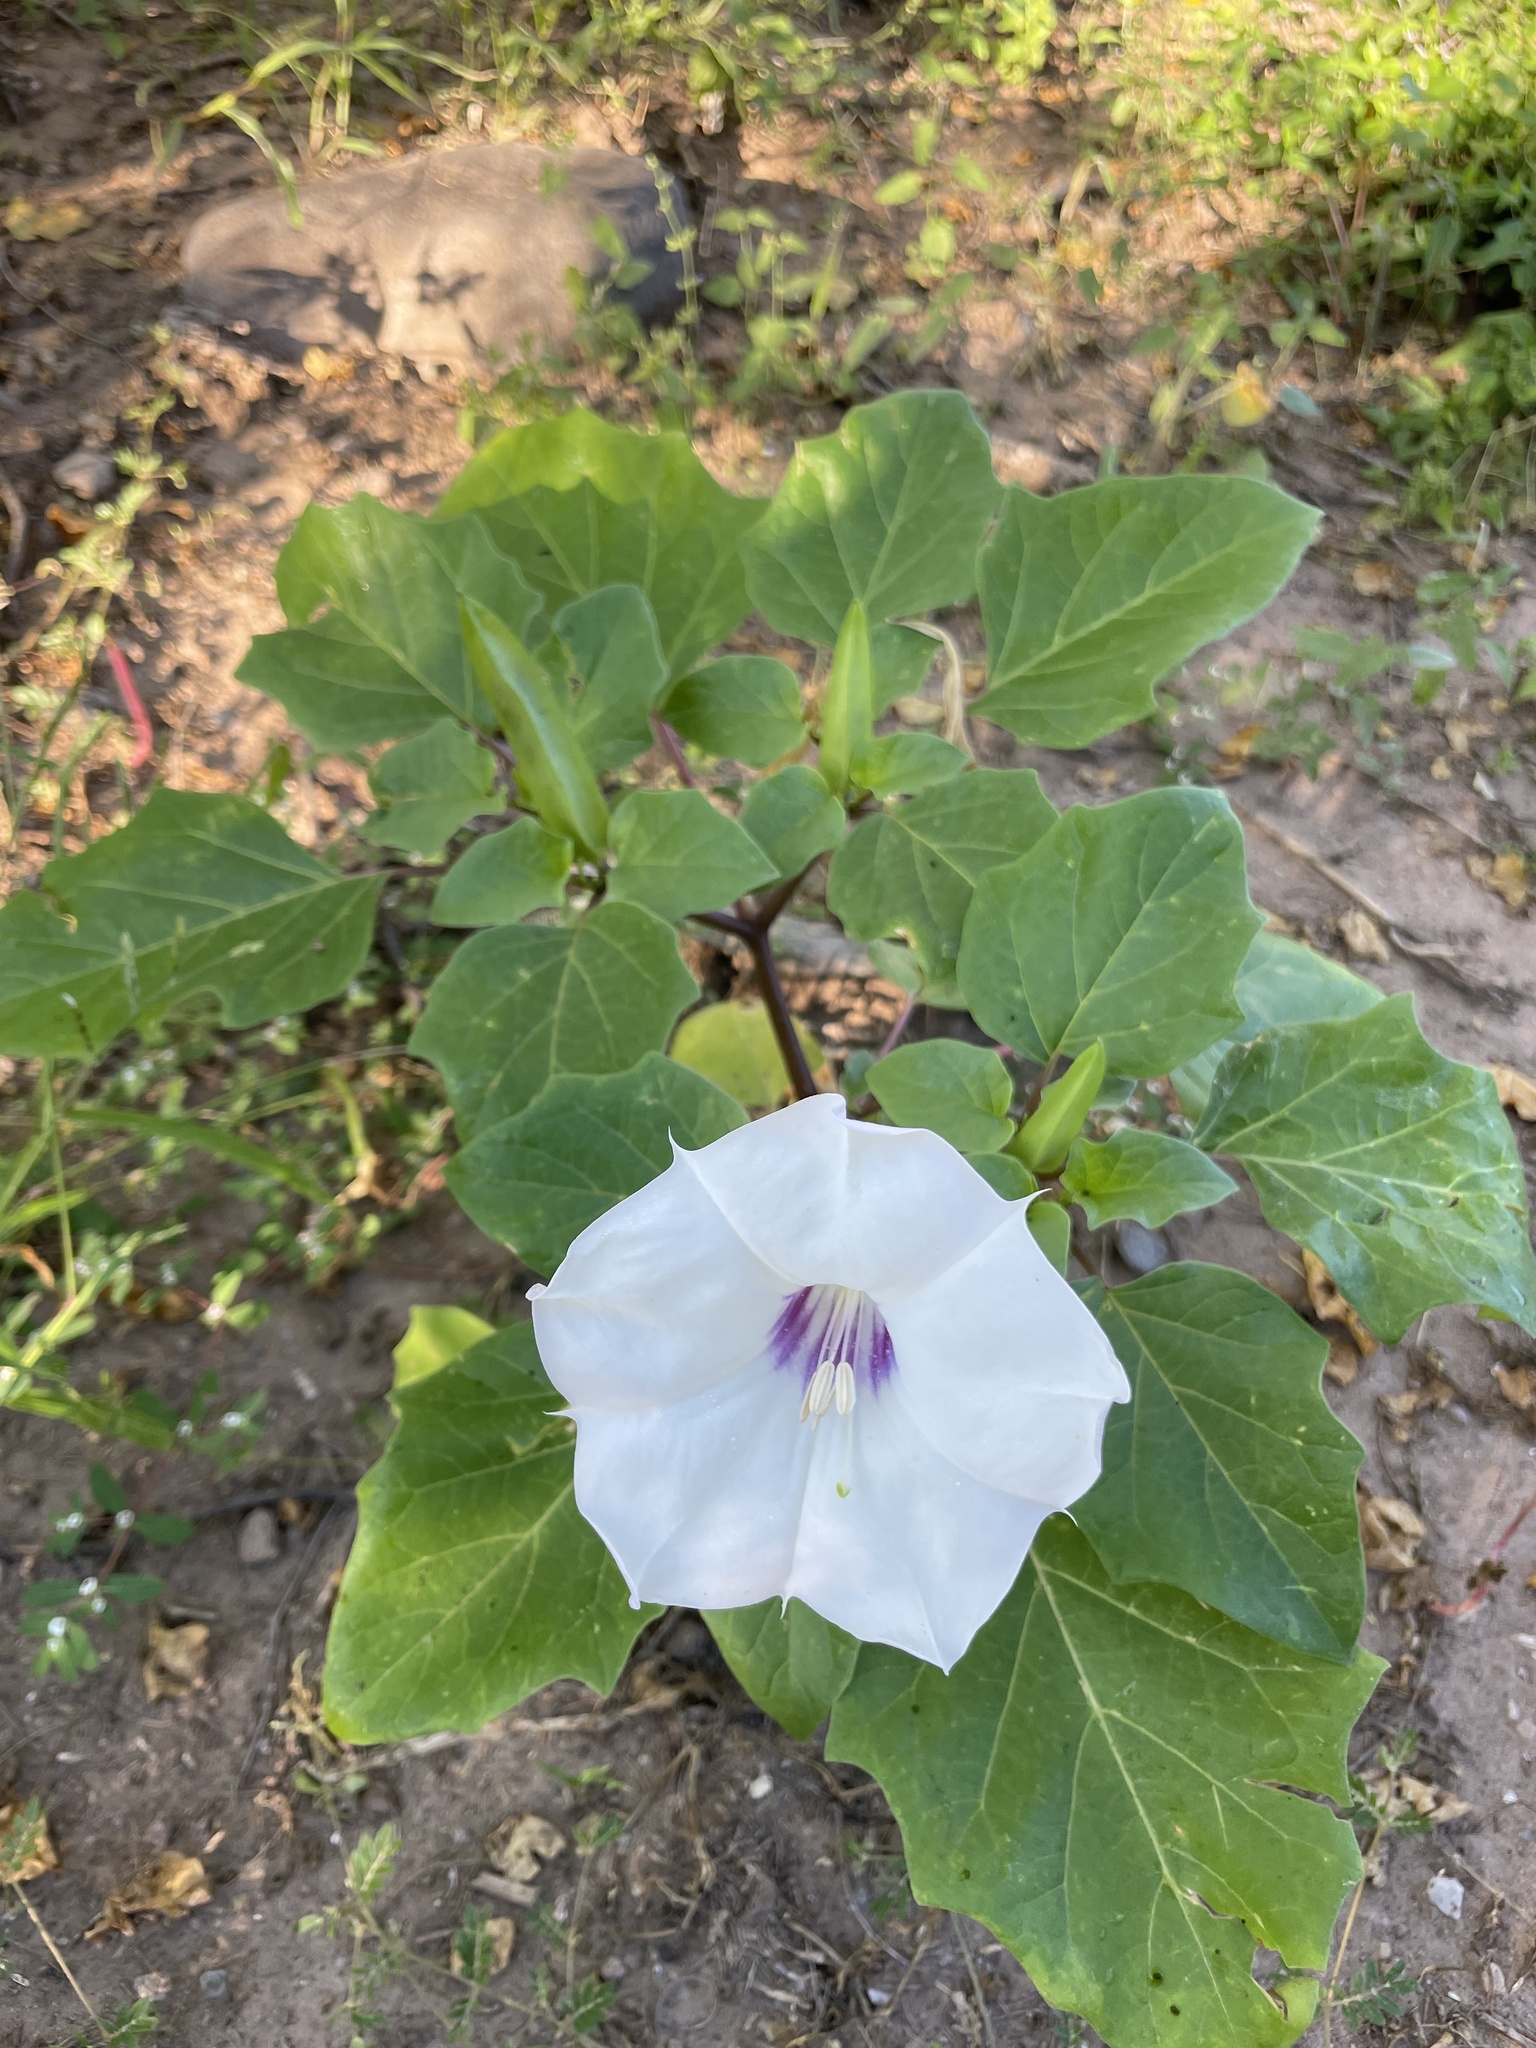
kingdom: Plantae
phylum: Tracheophyta
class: Magnoliopsida
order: Solanales
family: Solanaceae
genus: Datura
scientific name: Datura discolor
